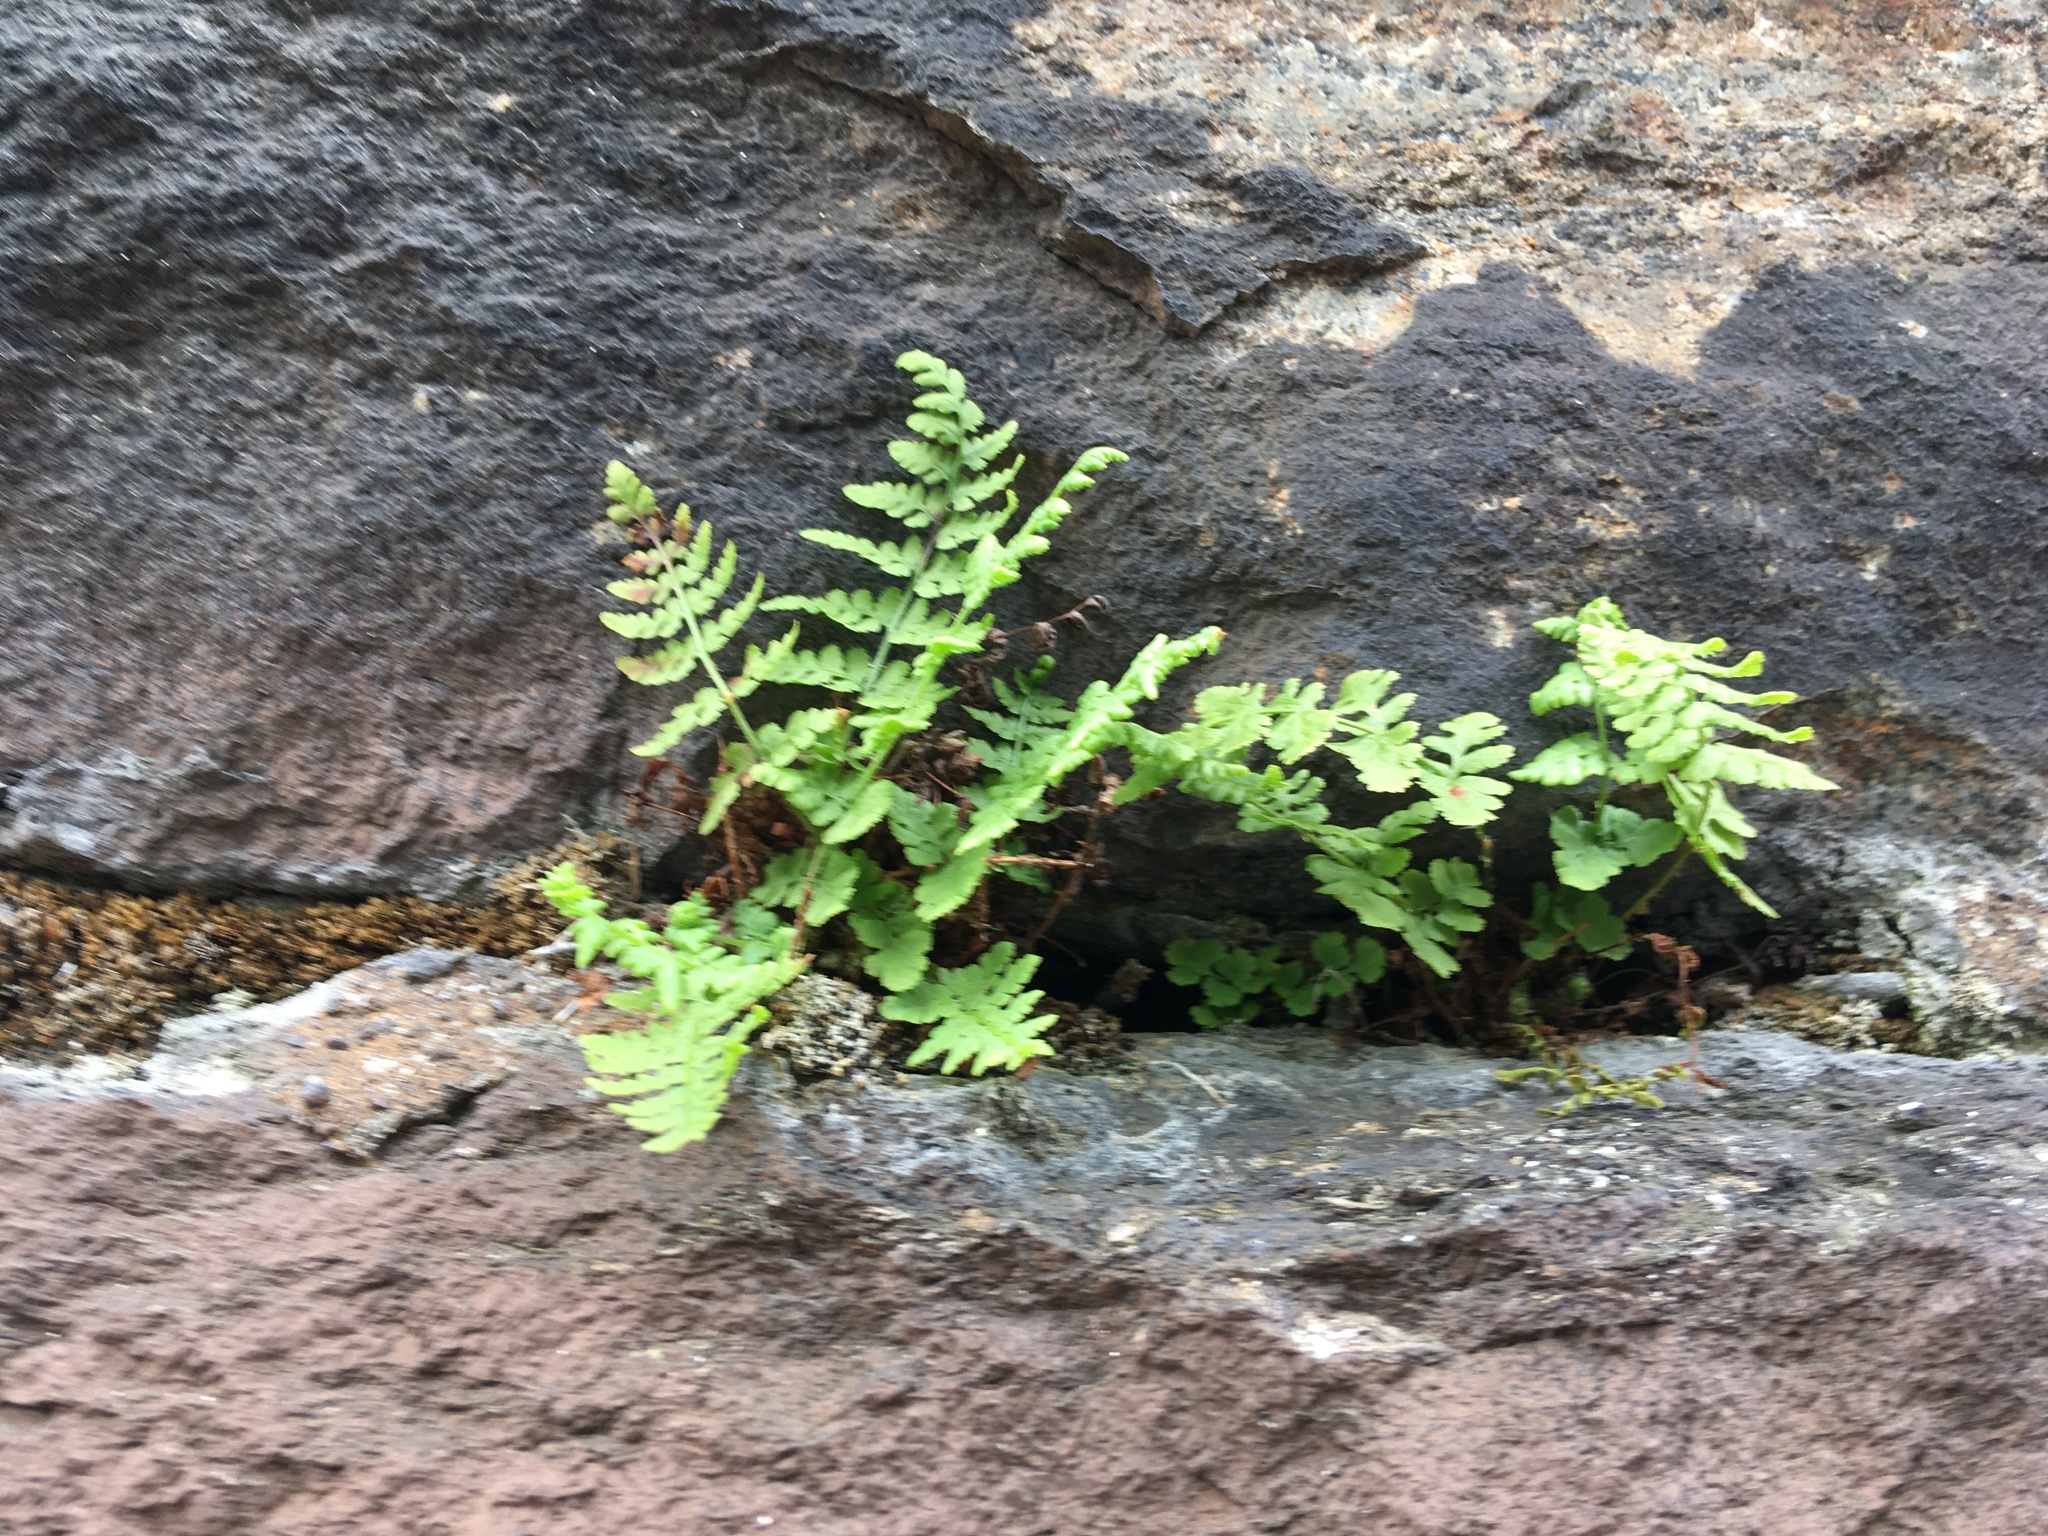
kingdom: Plantae
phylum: Tracheophyta
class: Polypodiopsida
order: Polypodiales
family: Woodsiaceae
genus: Physematium
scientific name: Physematium obtusum
